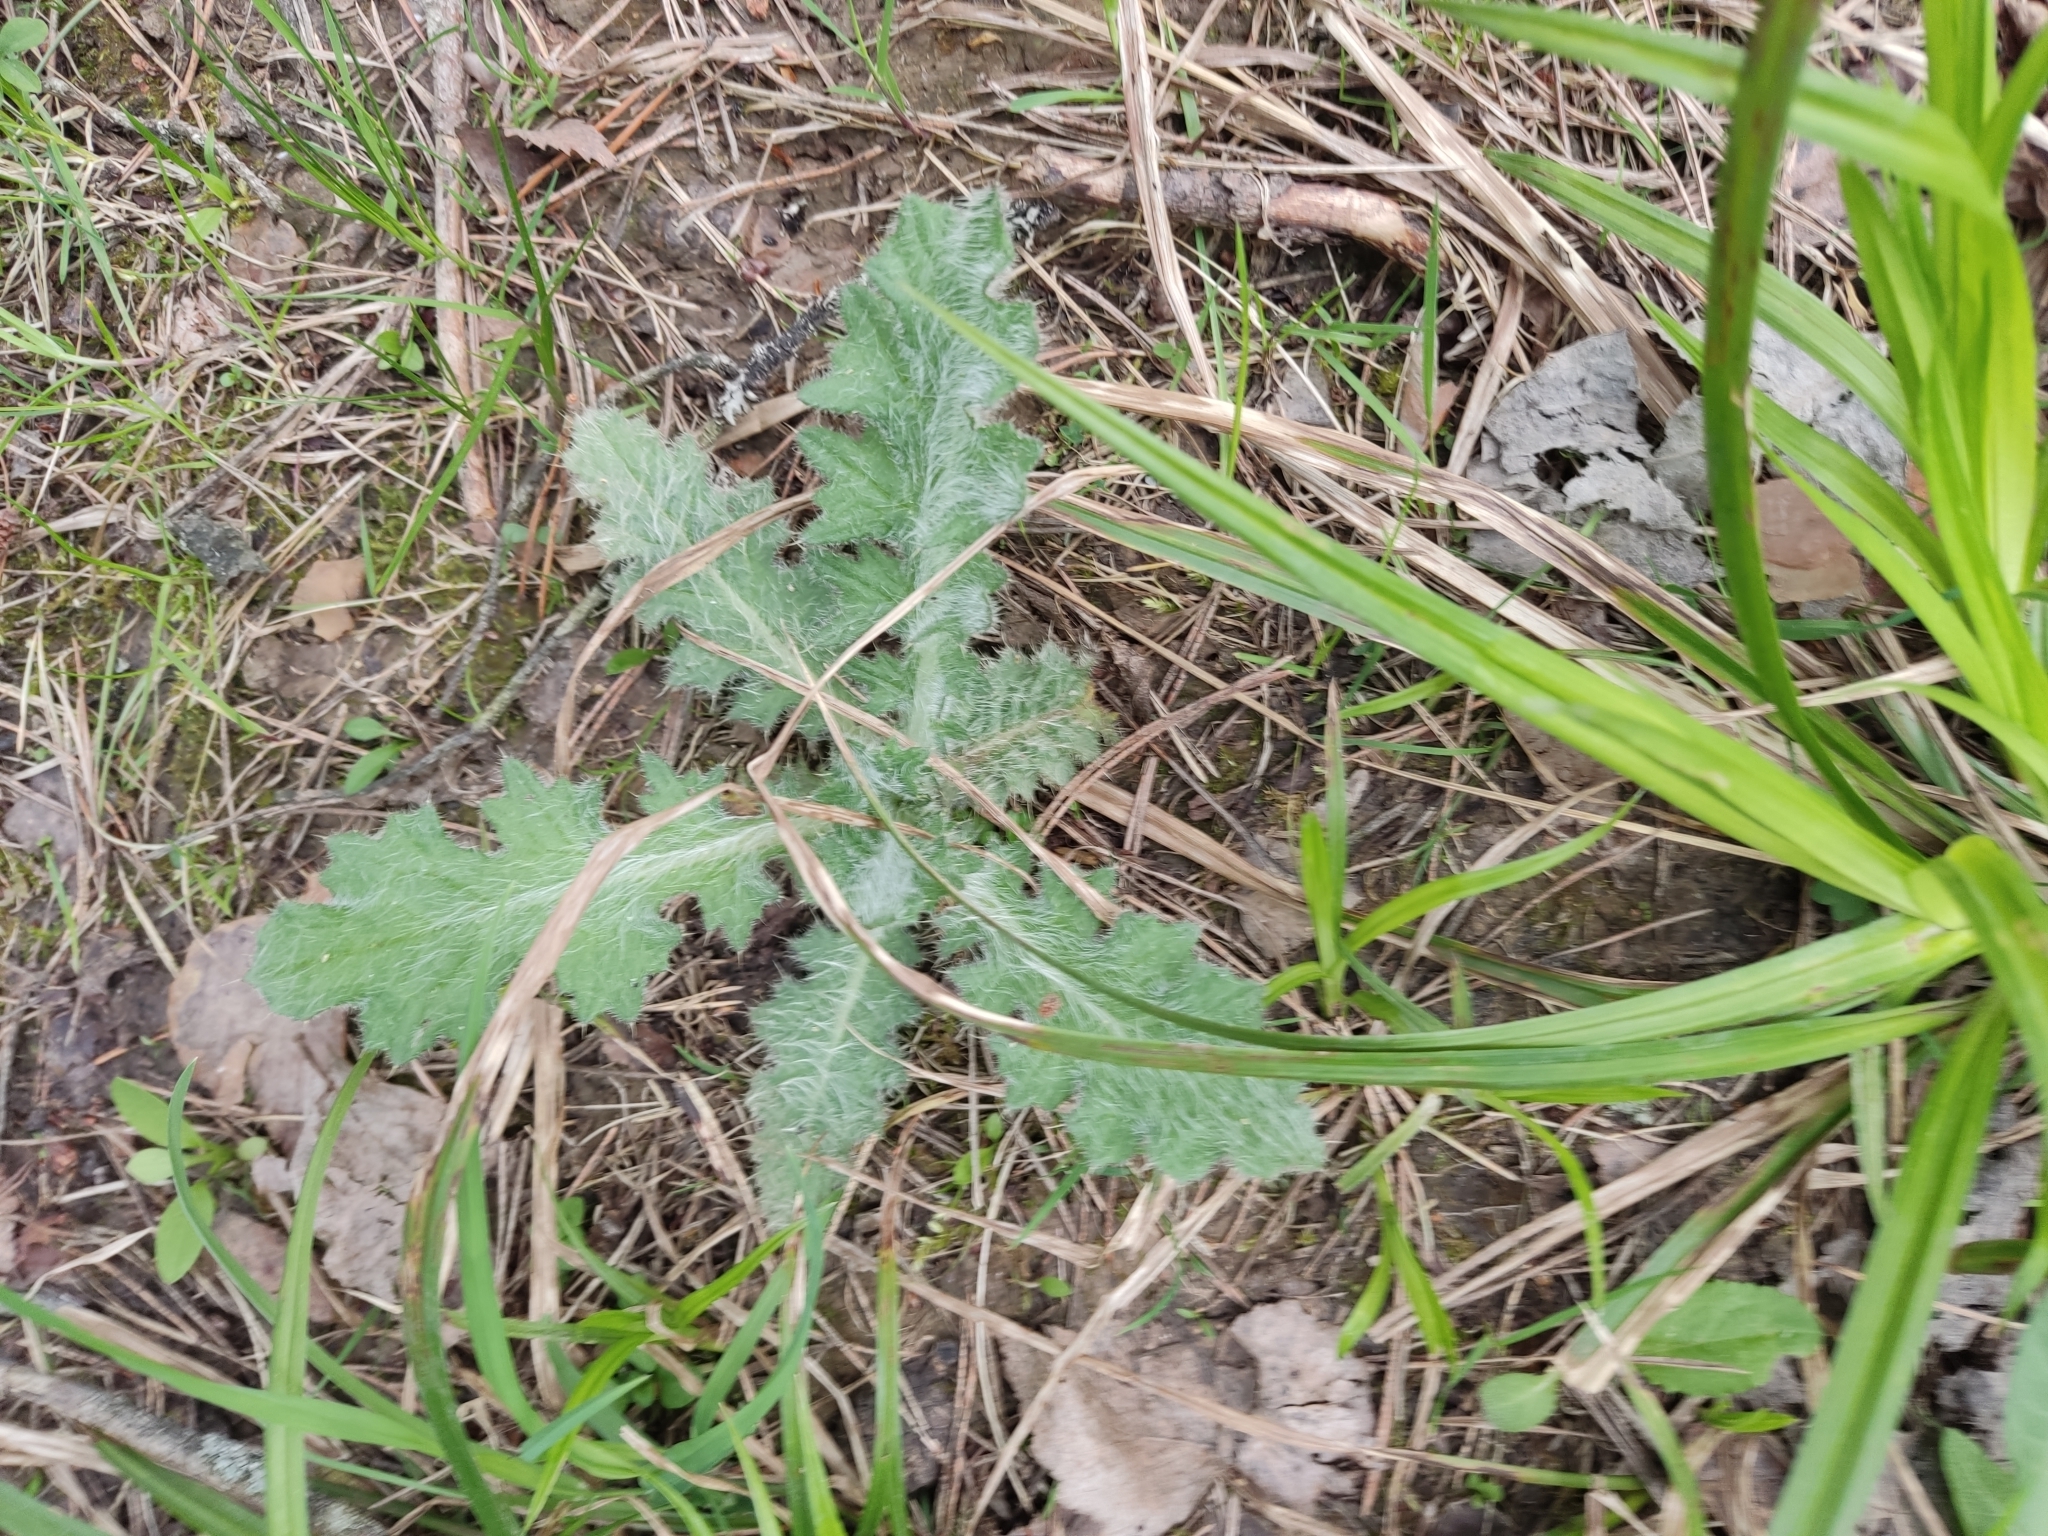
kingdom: Plantae
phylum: Tracheophyta
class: Magnoliopsida
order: Asterales
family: Asteraceae
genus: Cirsium
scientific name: Cirsium vulgare
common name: Bull thistle
